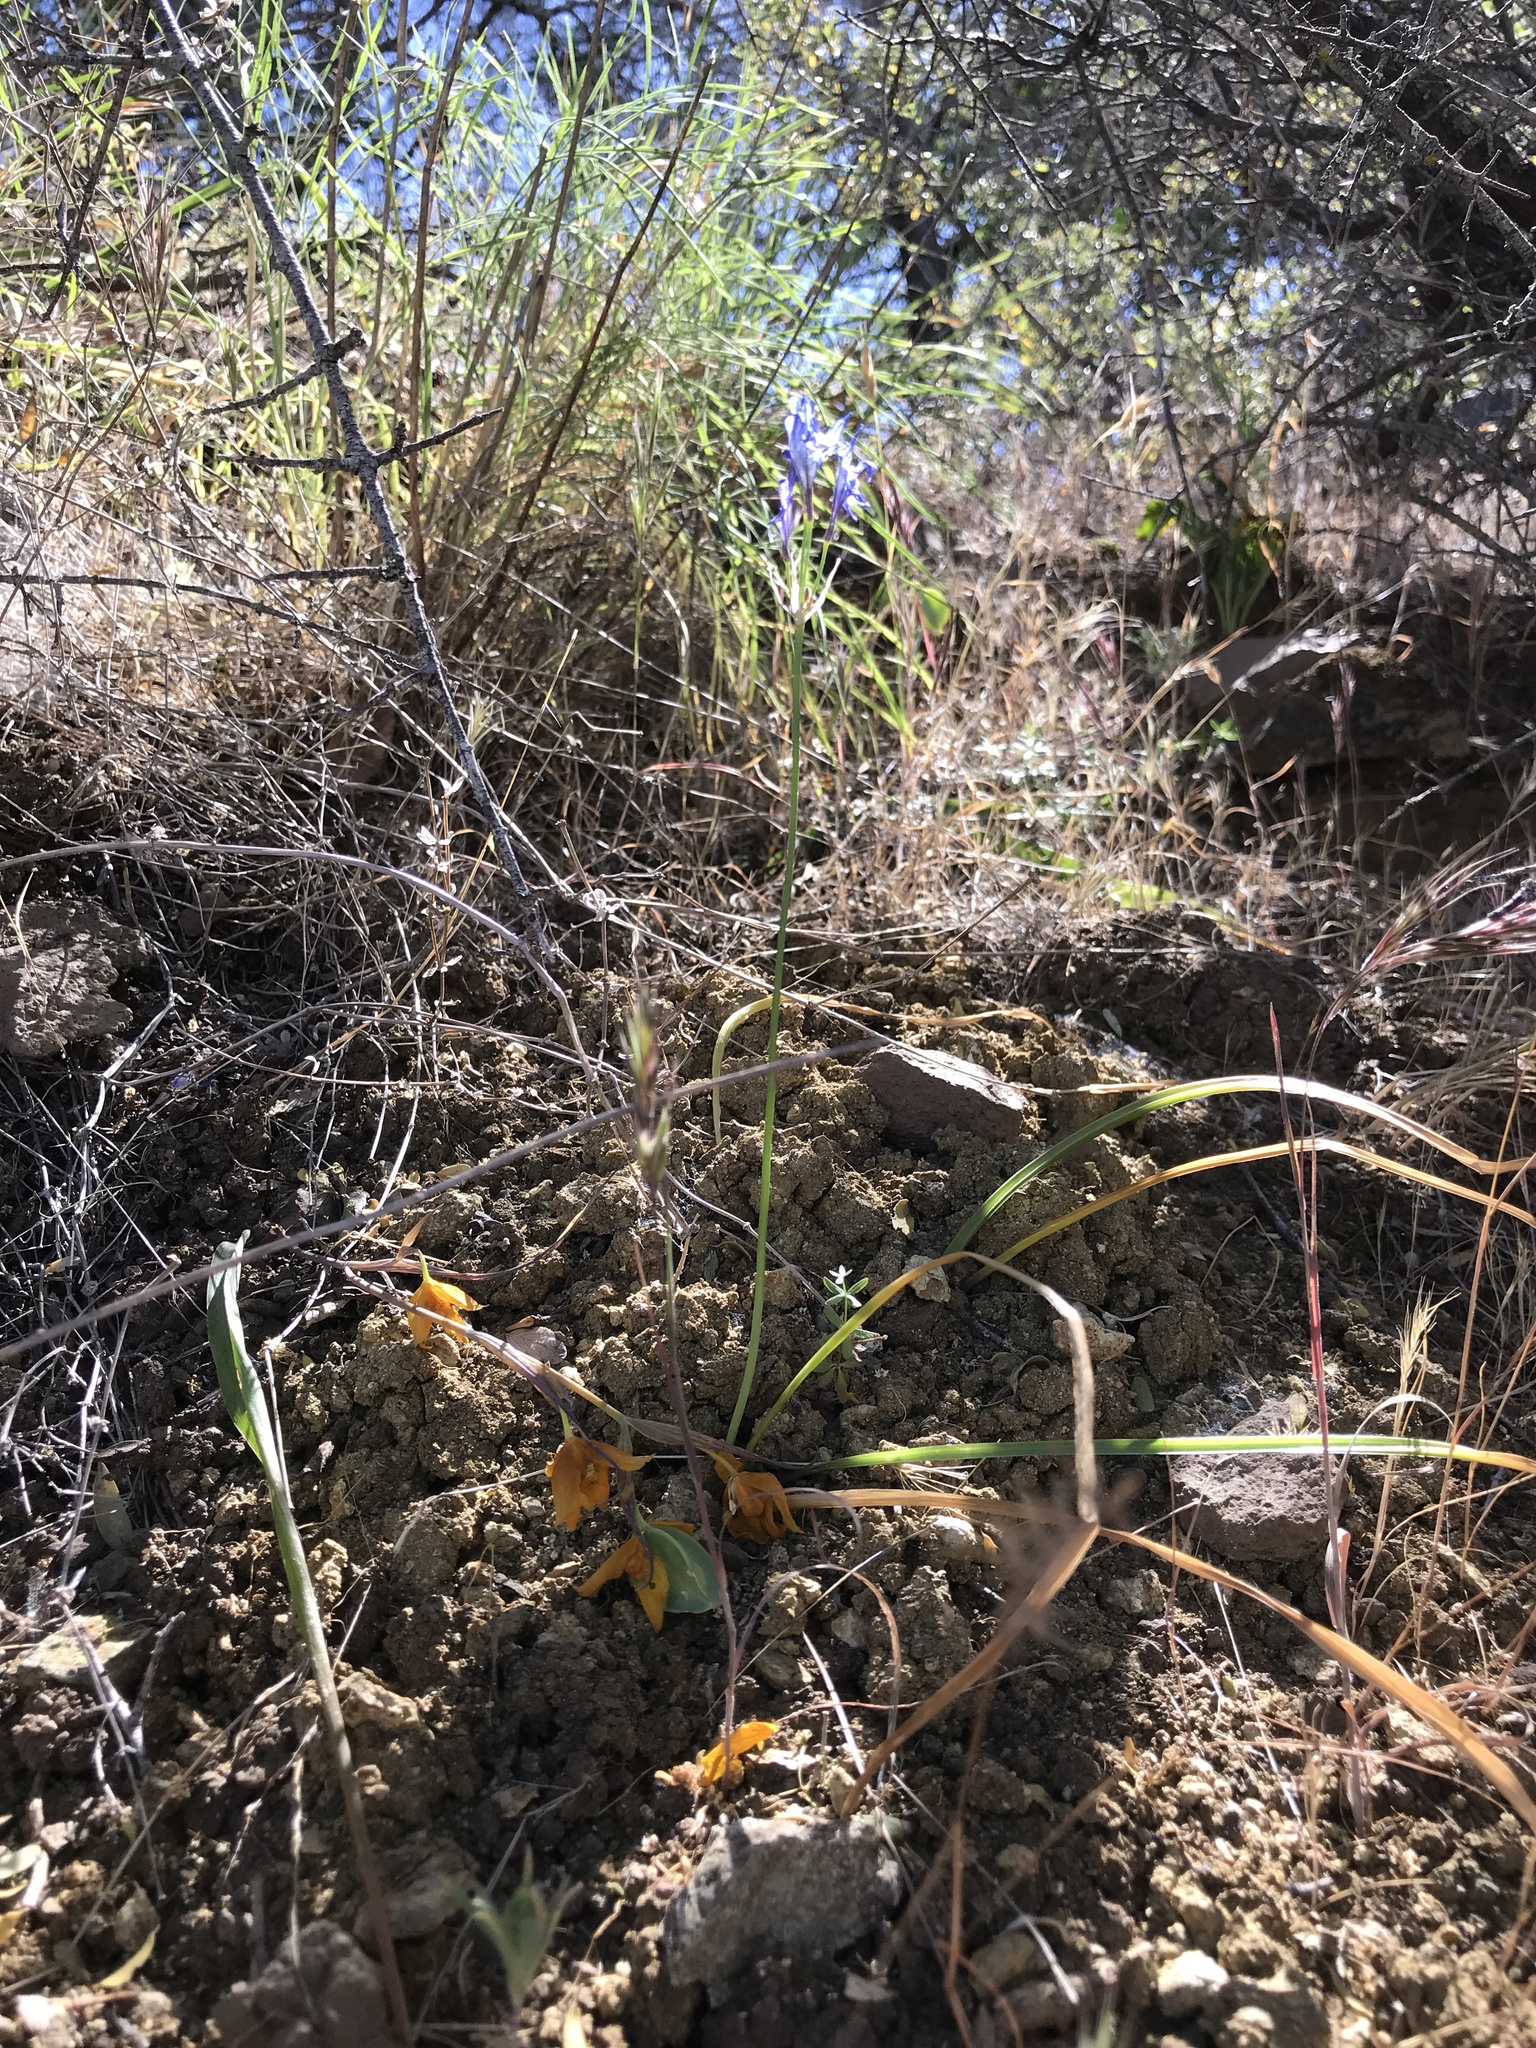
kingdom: Plantae
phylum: Tracheophyta
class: Liliopsida
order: Asparagales
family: Asparagaceae
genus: Triteleia
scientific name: Triteleia laxa
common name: Triplet-lily
